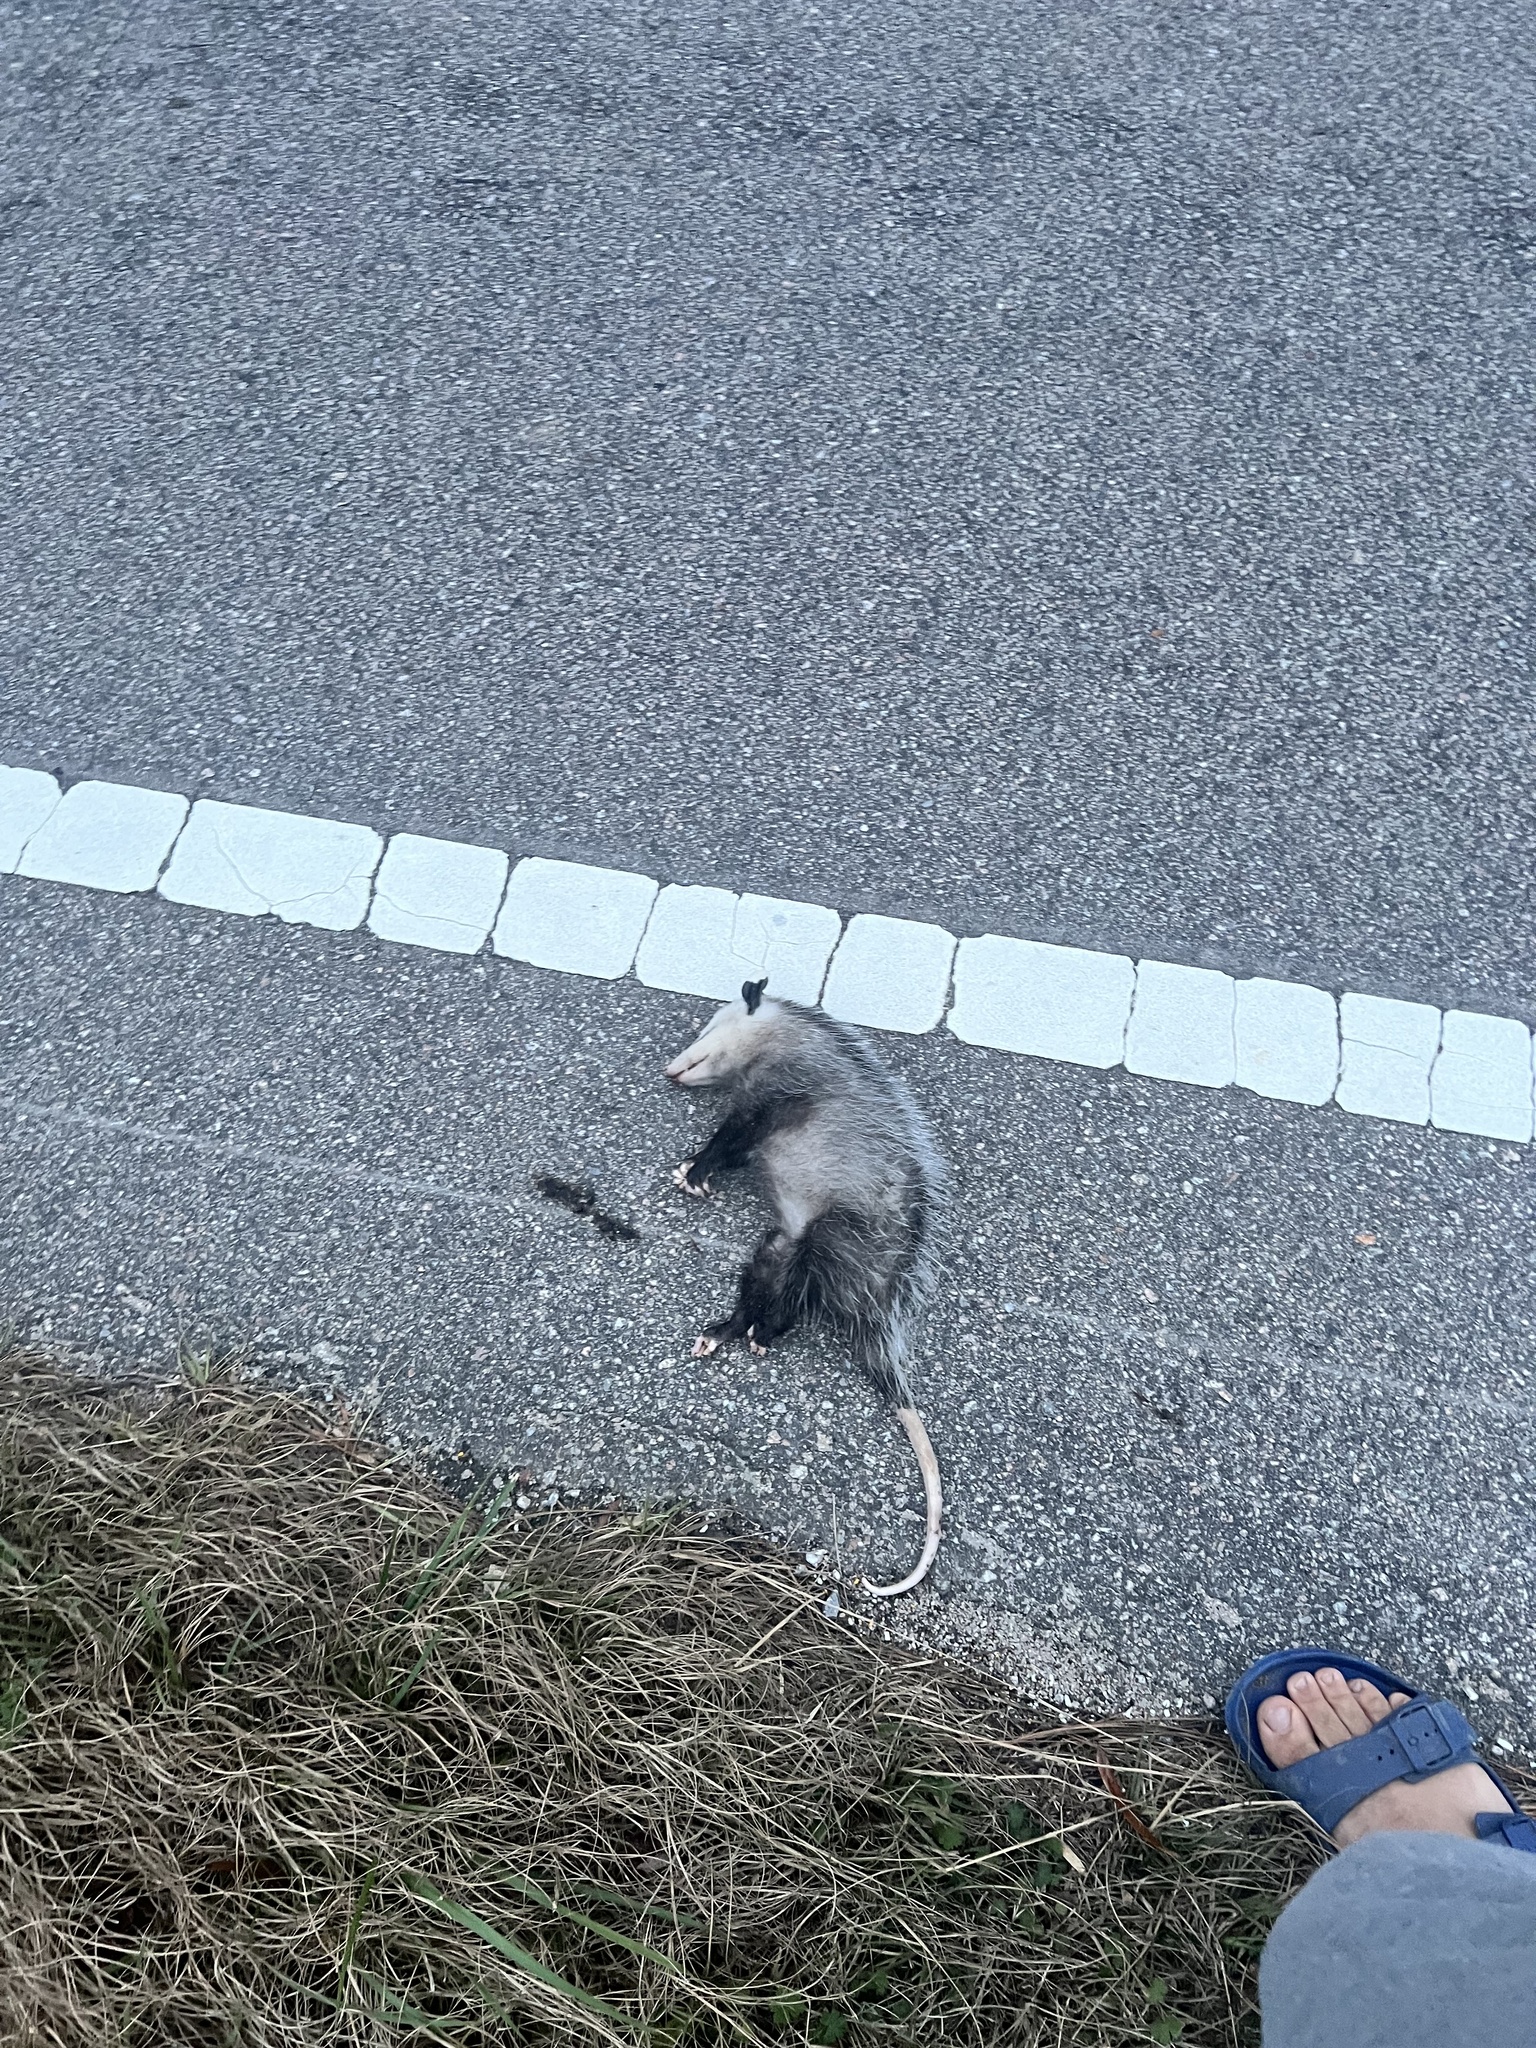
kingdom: Animalia
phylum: Chordata
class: Mammalia
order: Didelphimorphia
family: Didelphidae
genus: Didelphis
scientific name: Didelphis virginiana
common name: Virginia opossum
